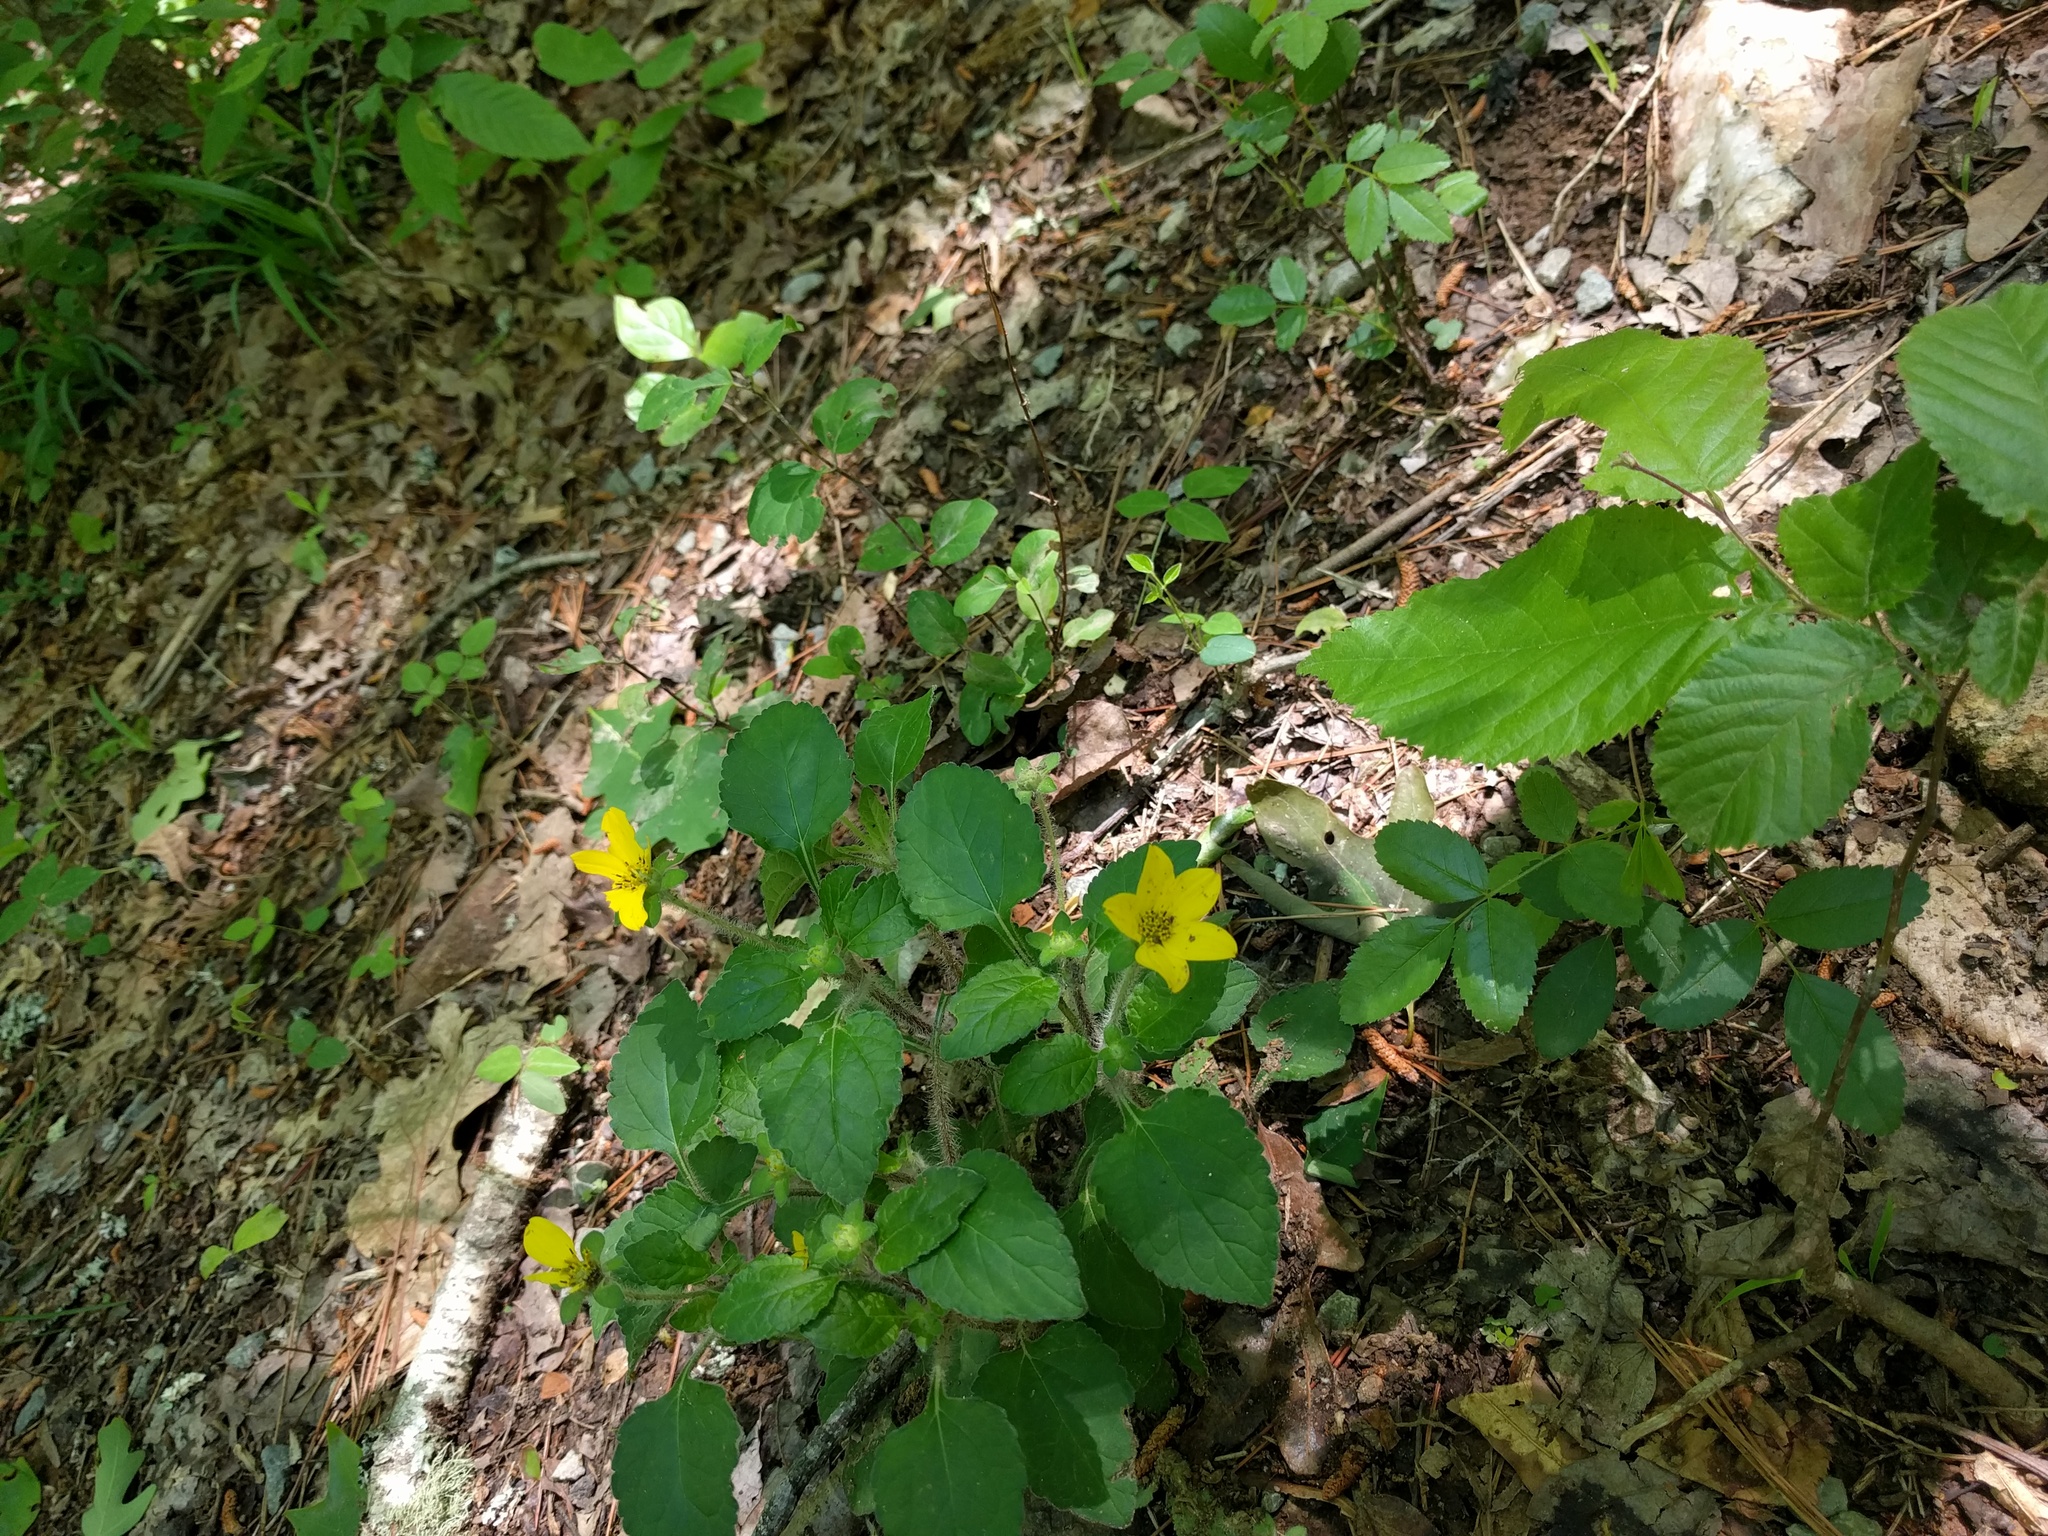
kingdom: Plantae
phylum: Tracheophyta
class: Magnoliopsida
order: Asterales
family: Asteraceae
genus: Chrysogonum
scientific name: Chrysogonum virginianum
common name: Golden-knee
